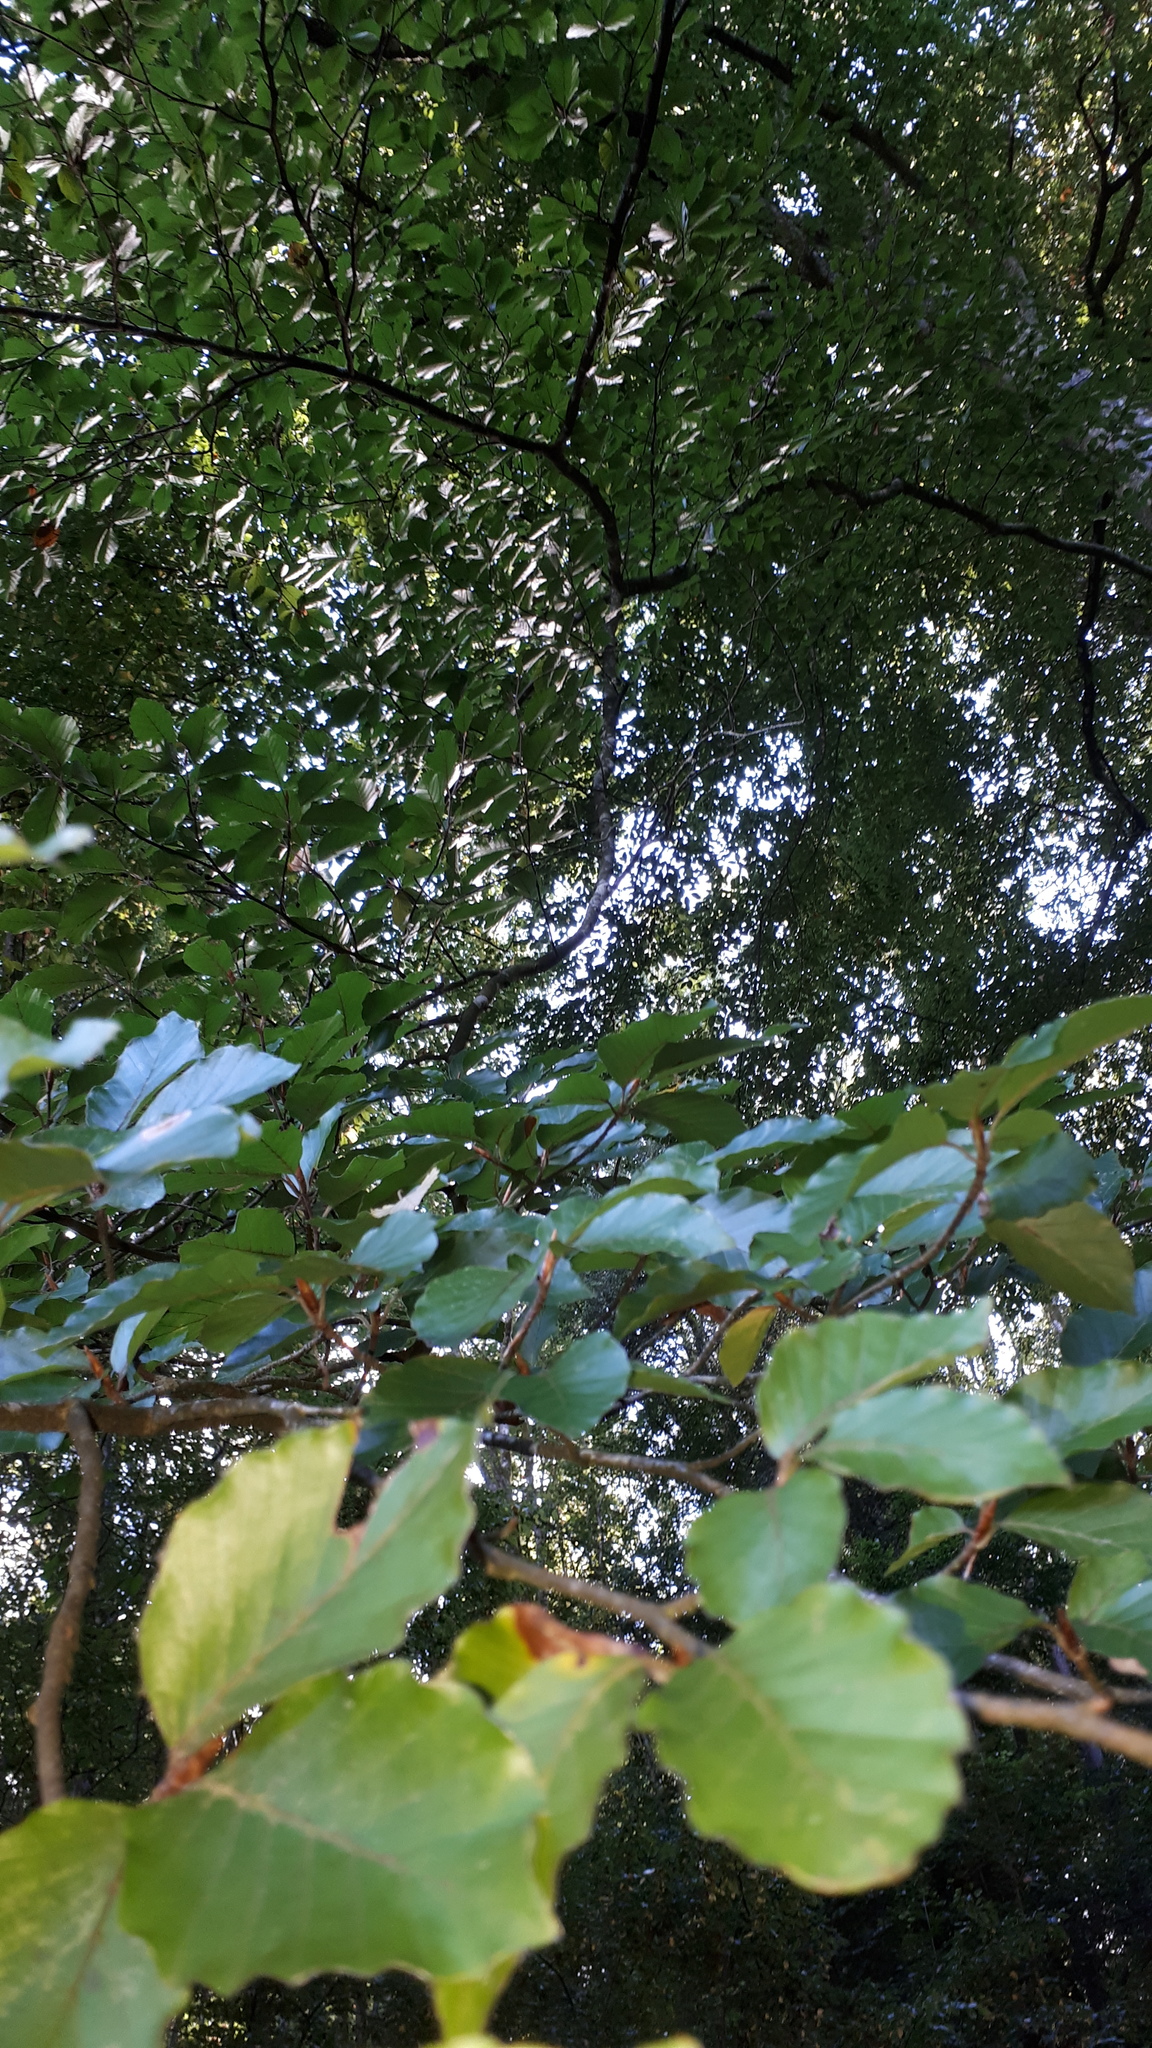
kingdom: Plantae
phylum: Tracheophyta
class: Magnoliopsida
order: Fagales
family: Fagaceae
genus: Fagus
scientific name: Fagus sylvatica
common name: Beech
